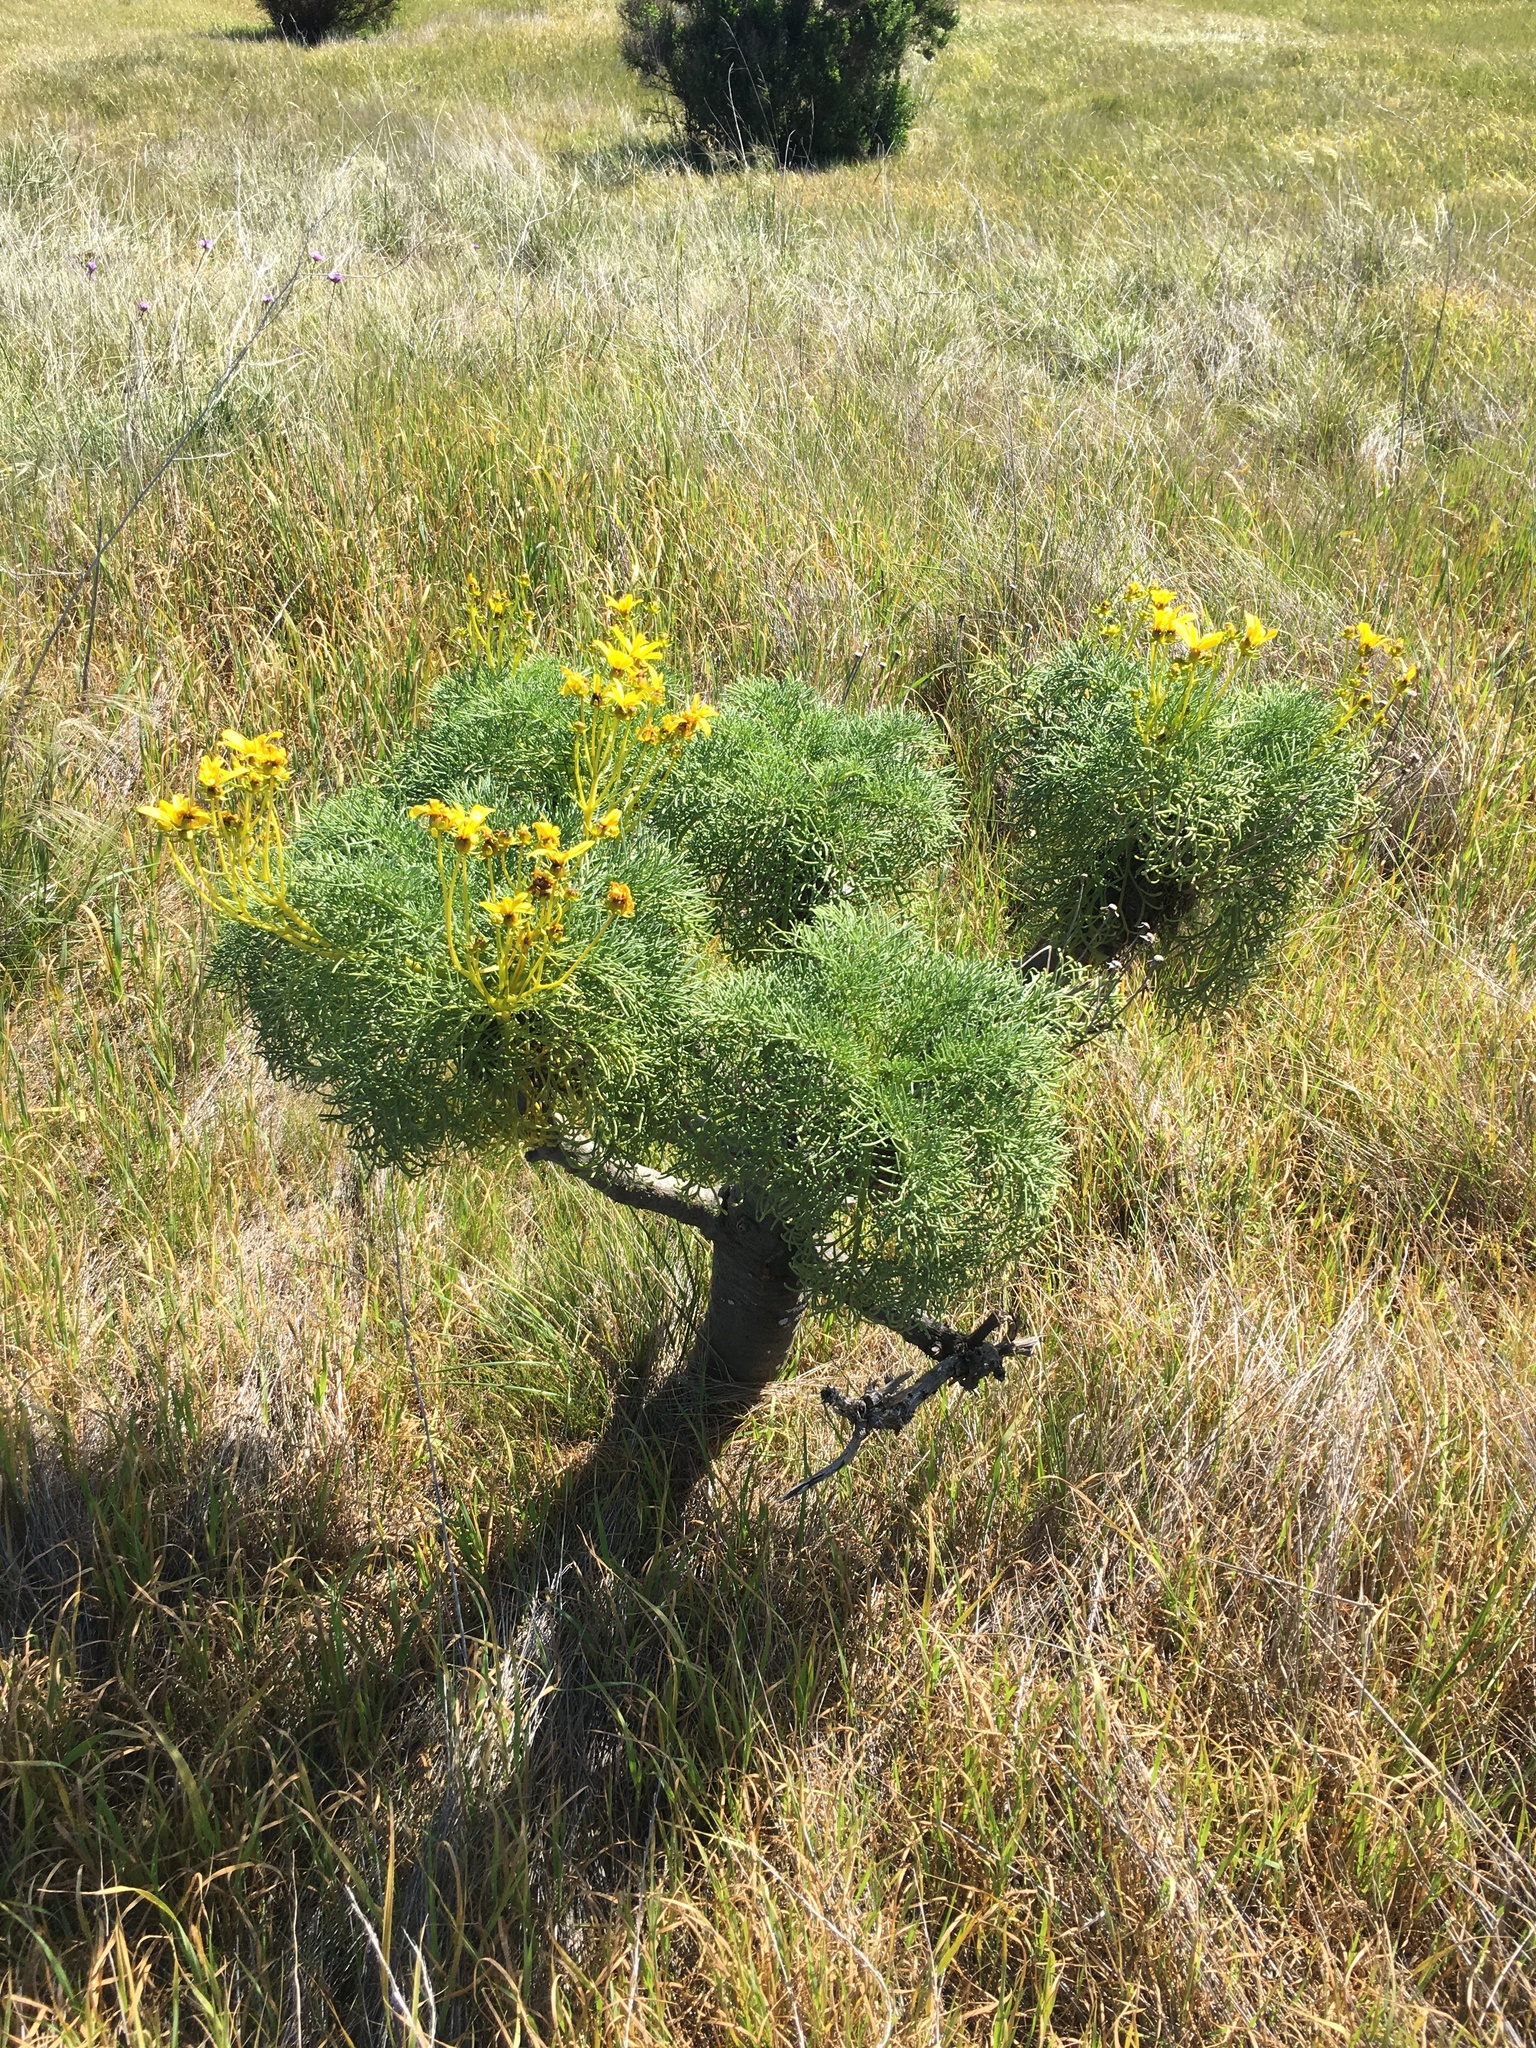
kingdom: Plantae
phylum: Tracheophyta
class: Magnoliopsida
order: Asterales
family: Asteraceae
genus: Coreopsis
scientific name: Coreopsis gigantea
